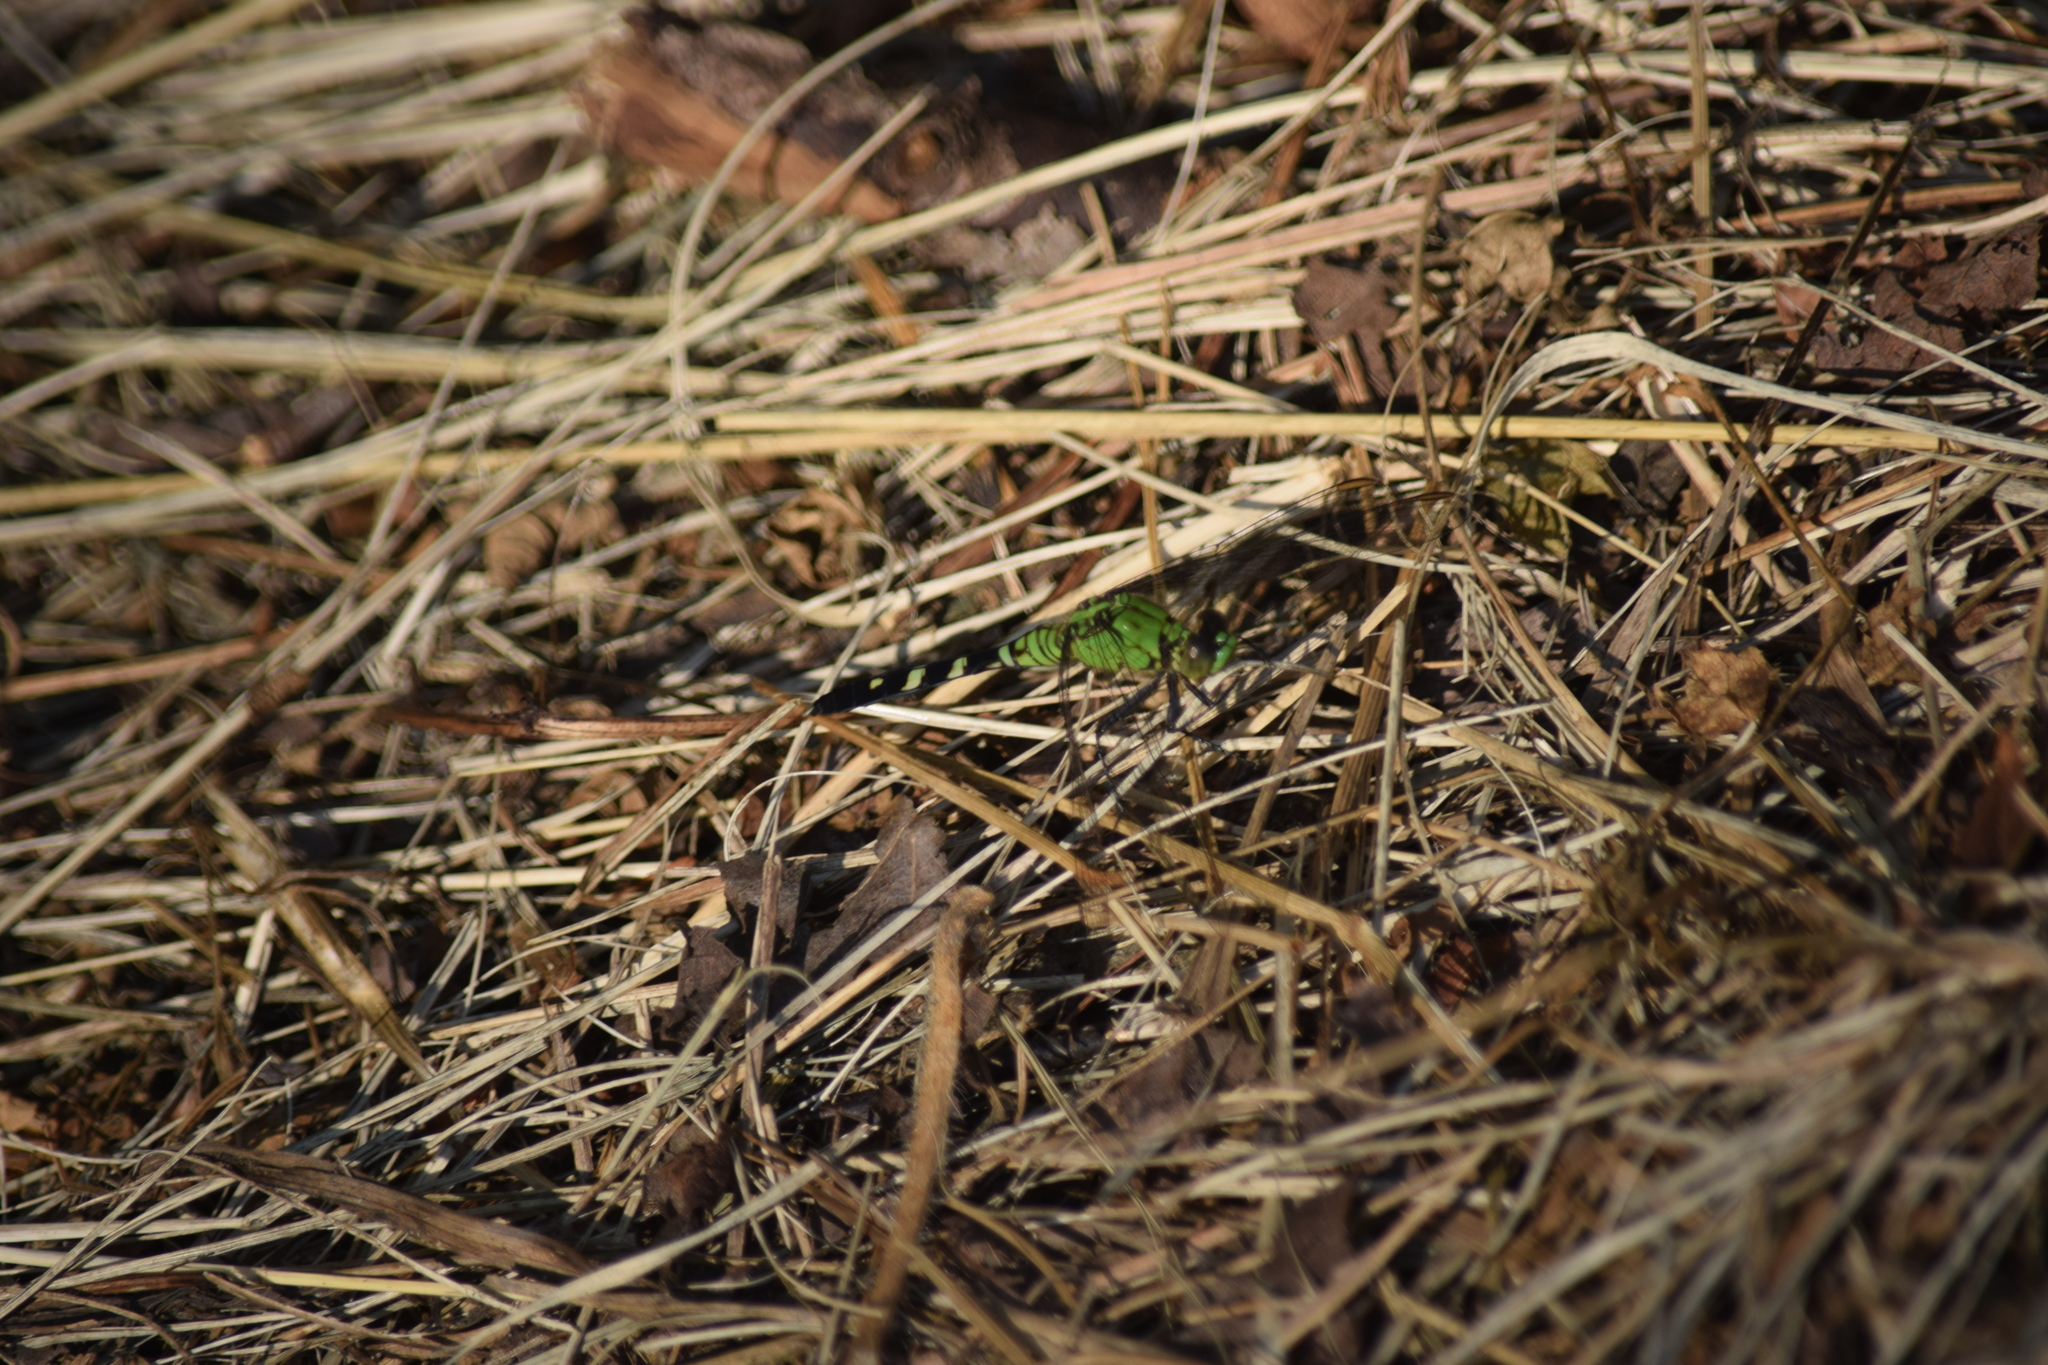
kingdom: Animalia
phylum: Arthropoda
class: Insecta
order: Odonata
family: Libellulidae
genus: Erythemis
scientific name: Erythemis simplicicollis
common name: Eastern pondhawk
